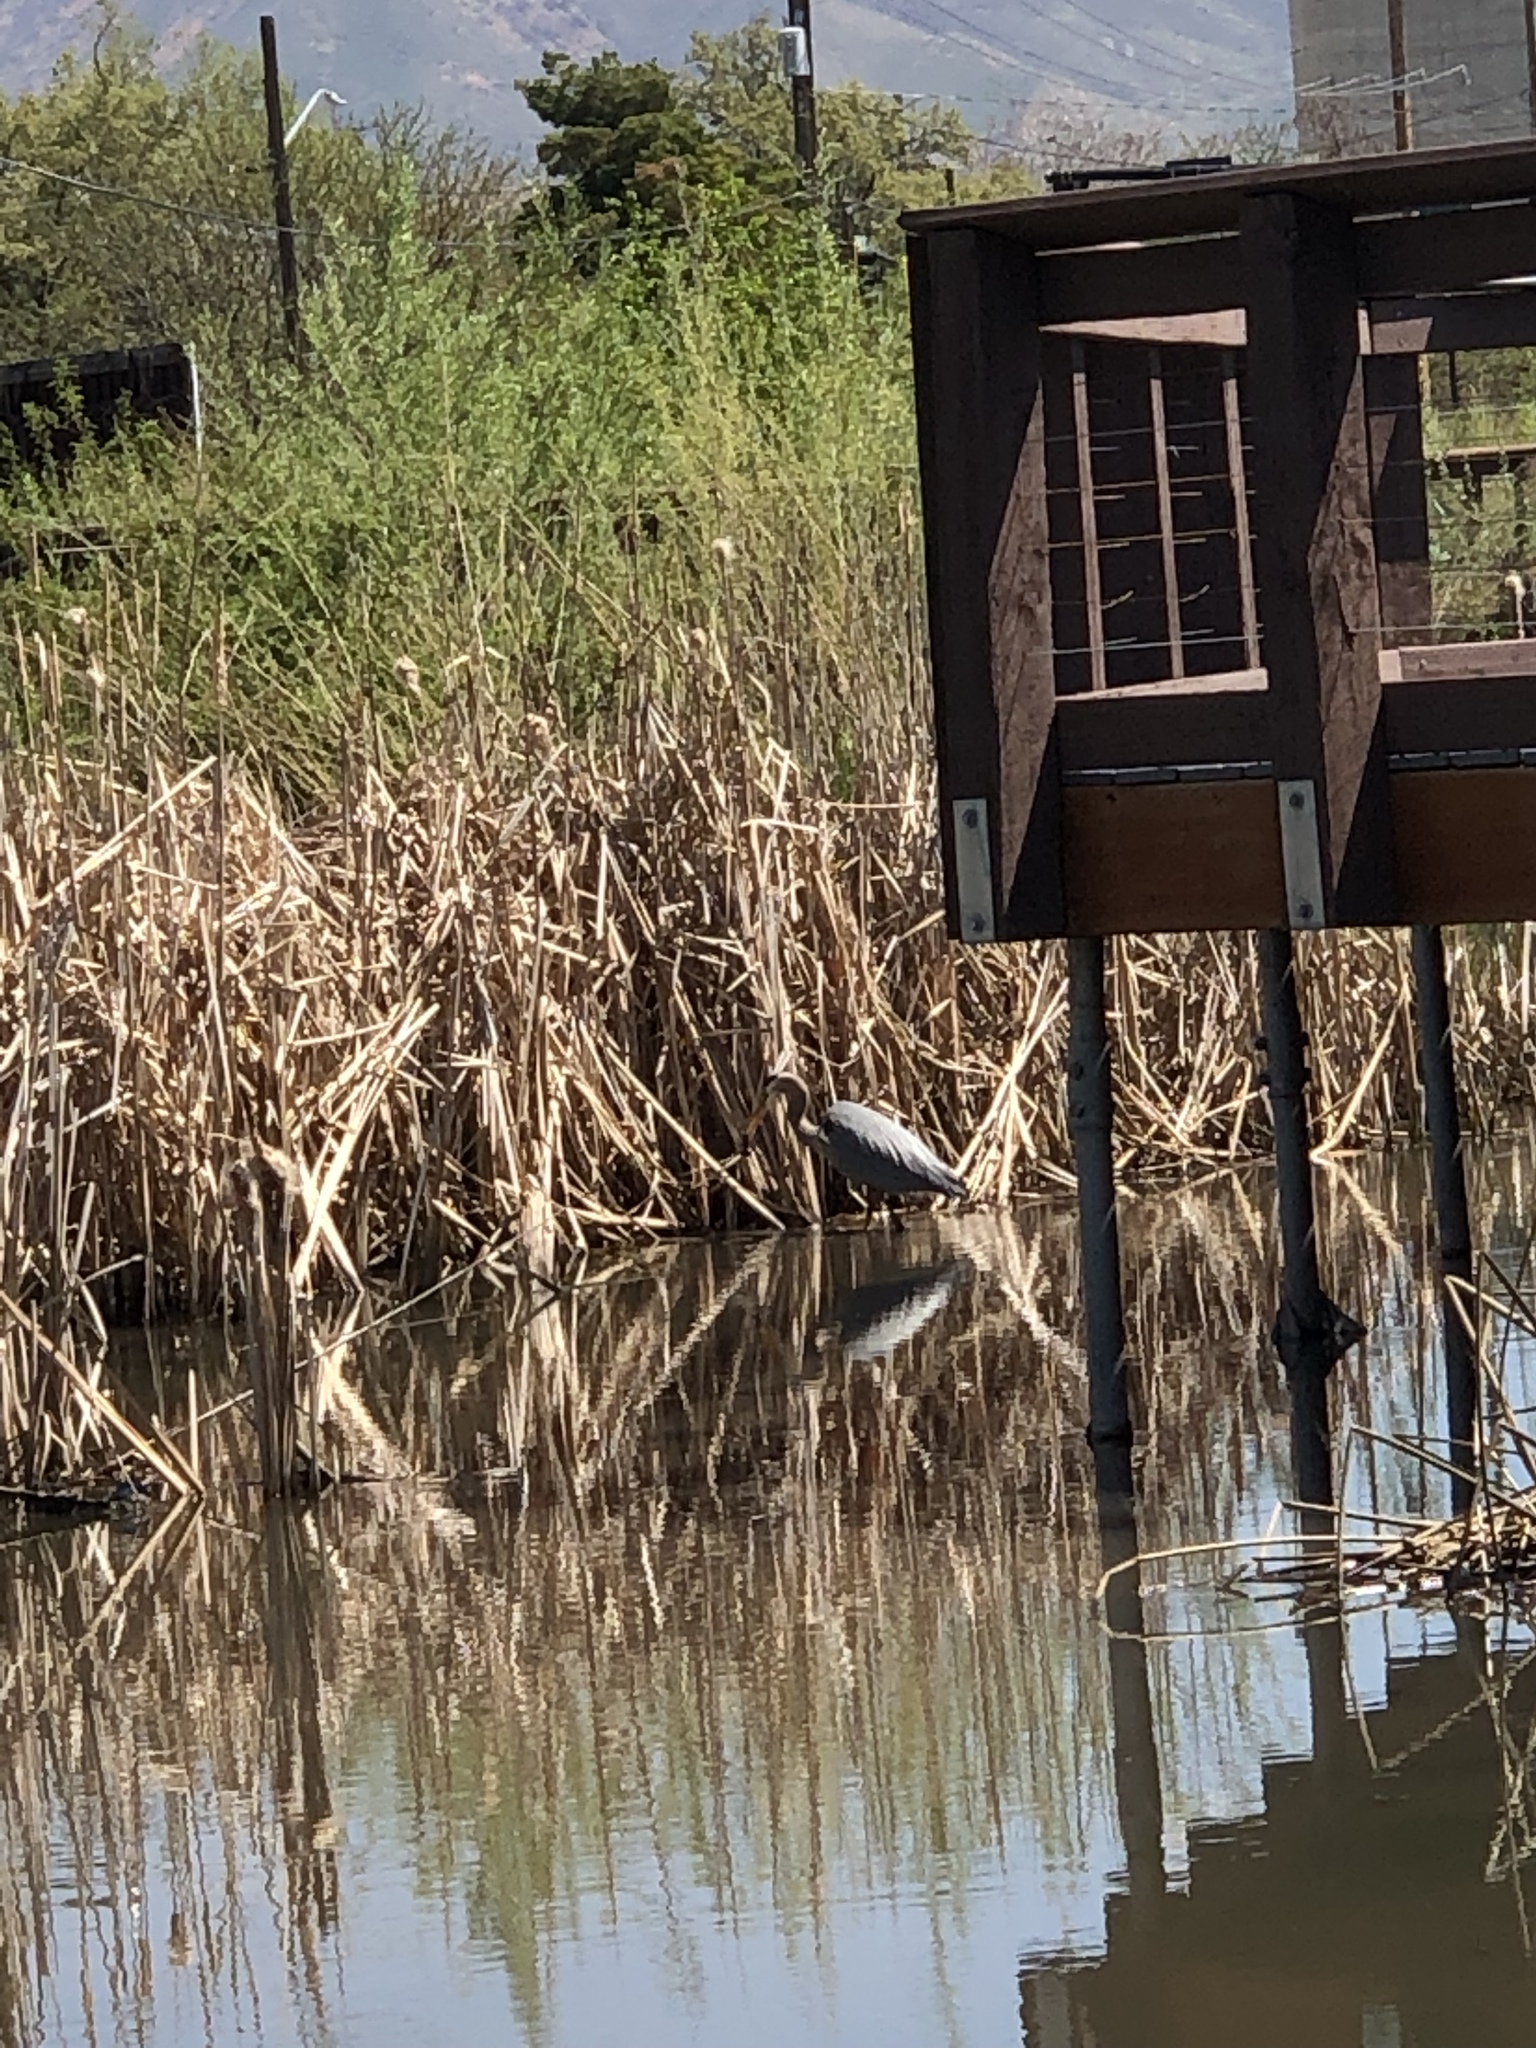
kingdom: Animalia
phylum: Chordata
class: Aves
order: Pelecaniformes
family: Ardeidae
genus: Ardea
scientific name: Ardea herodias
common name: Great blue heron
